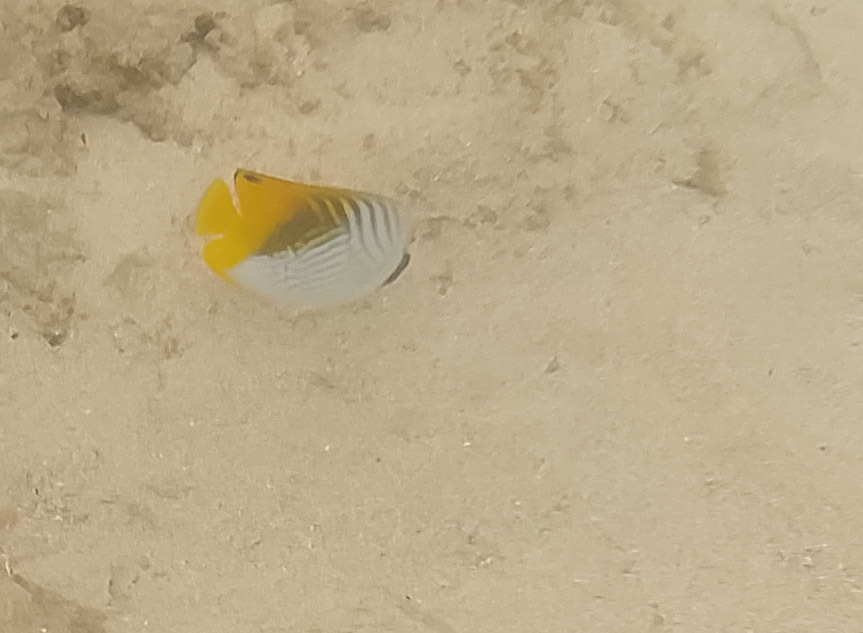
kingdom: Animalia
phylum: Chordata
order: Perciformes
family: Chaetodontidae
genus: Chaetodon
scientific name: Chaetodon auriga
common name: Threadfin butterflyfish
